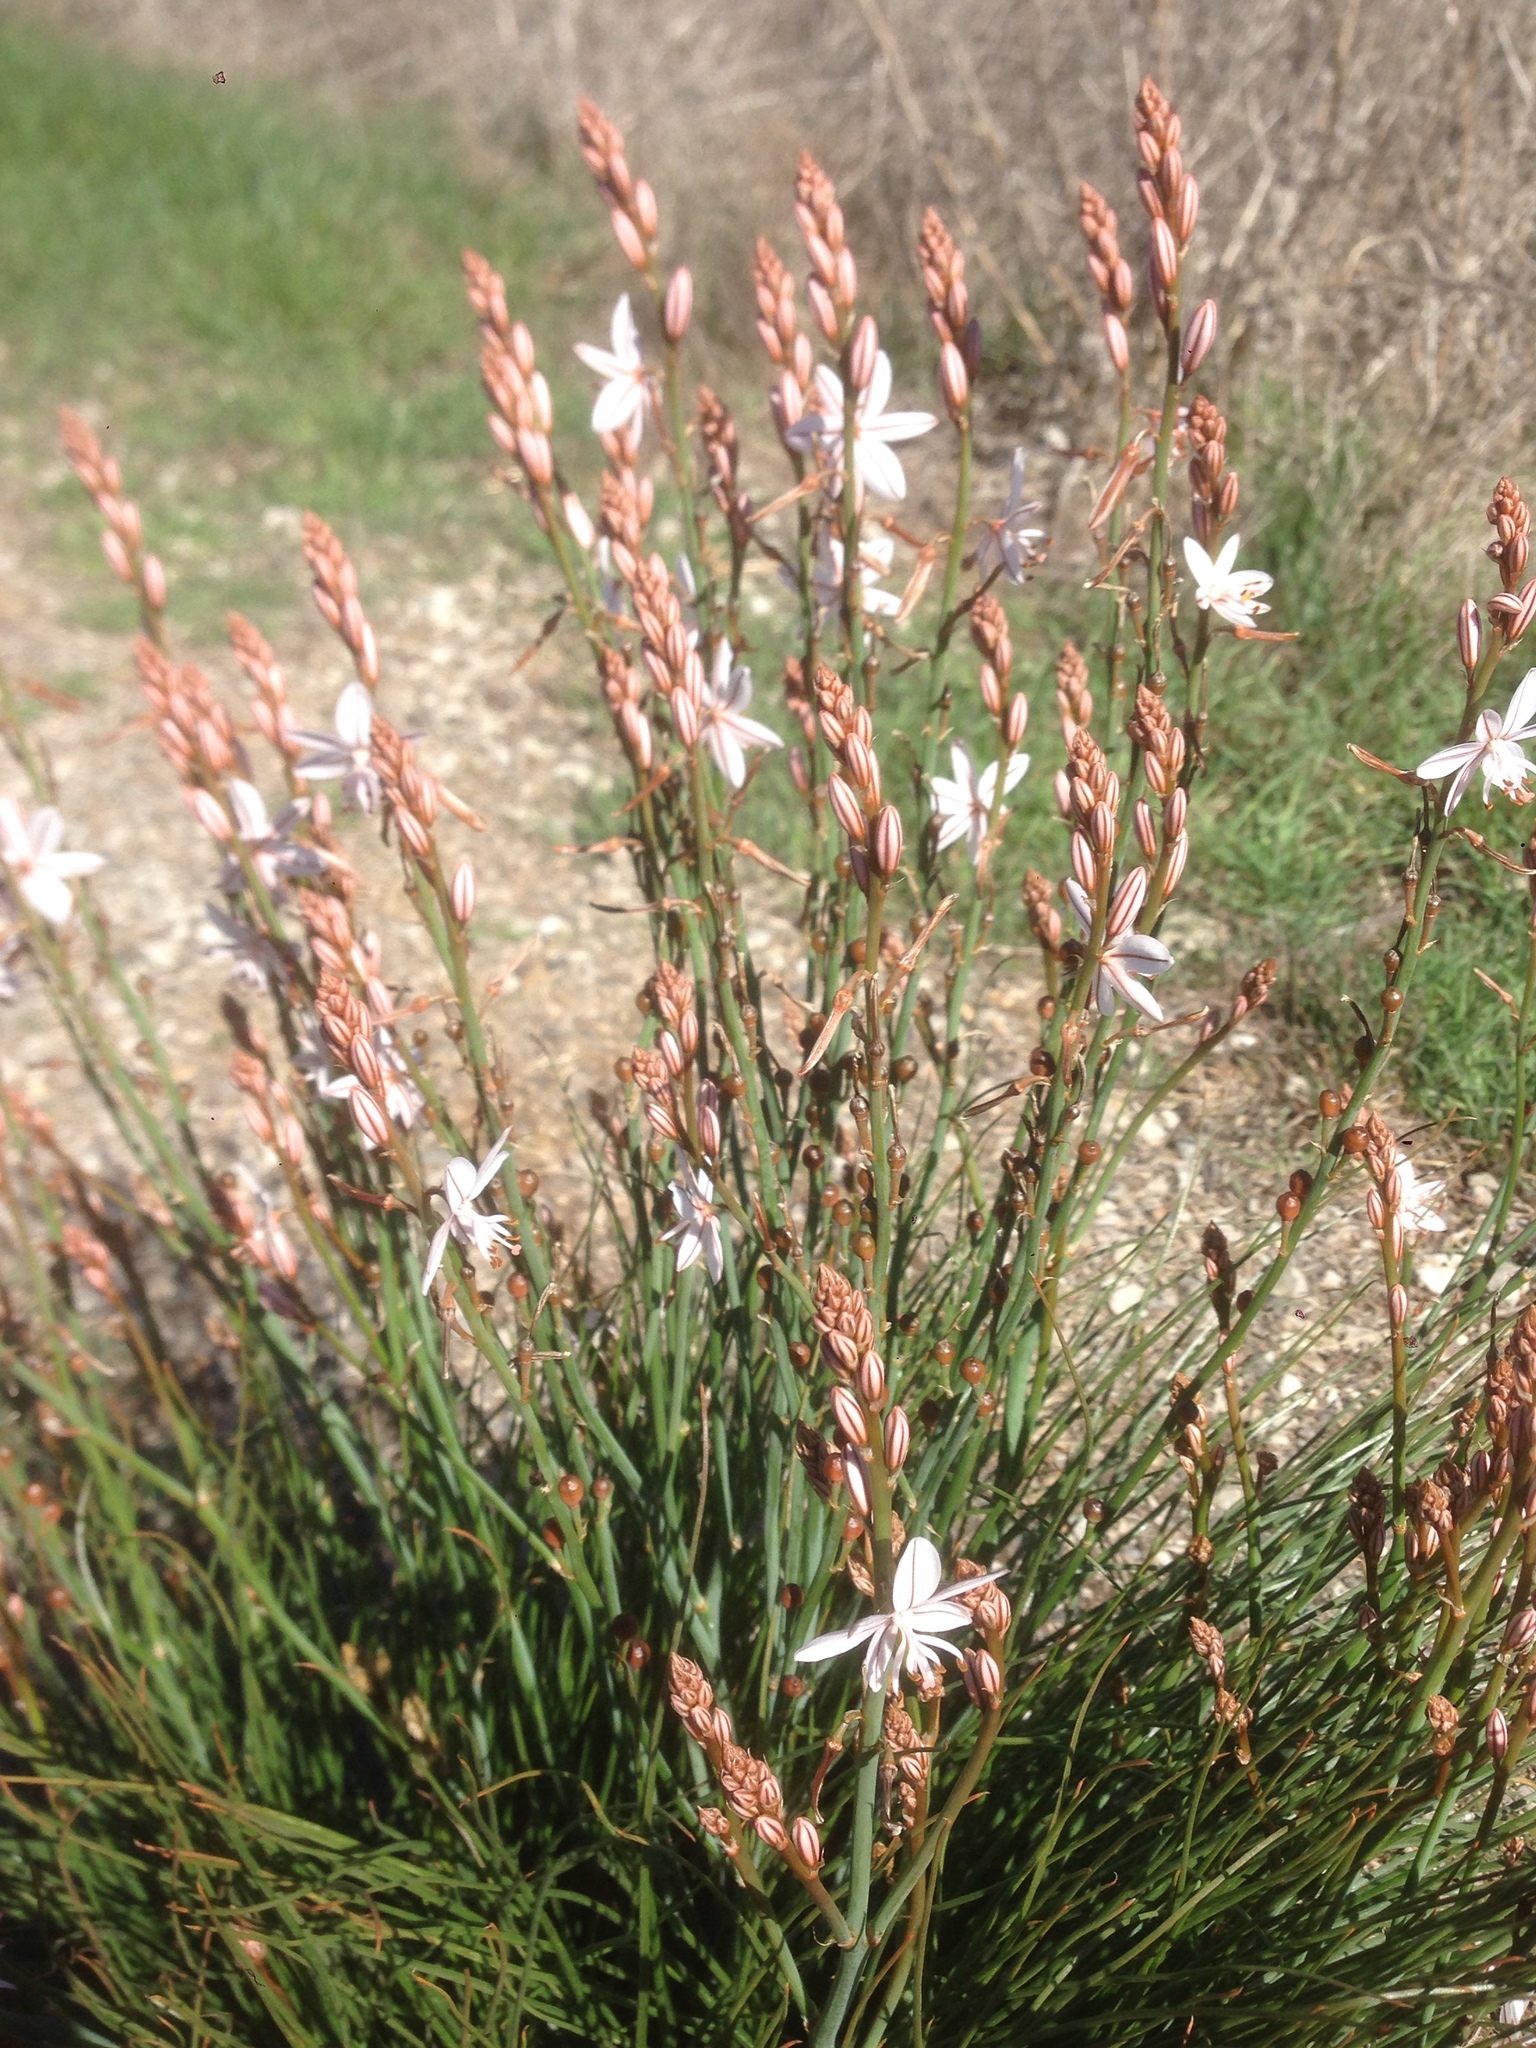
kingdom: Plantae
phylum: Tracheophyta
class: Liliopsida
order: Asparagales
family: Asphodelaceae
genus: Asphodelus
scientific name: Asphodelus fistulosus
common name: Onionweed
